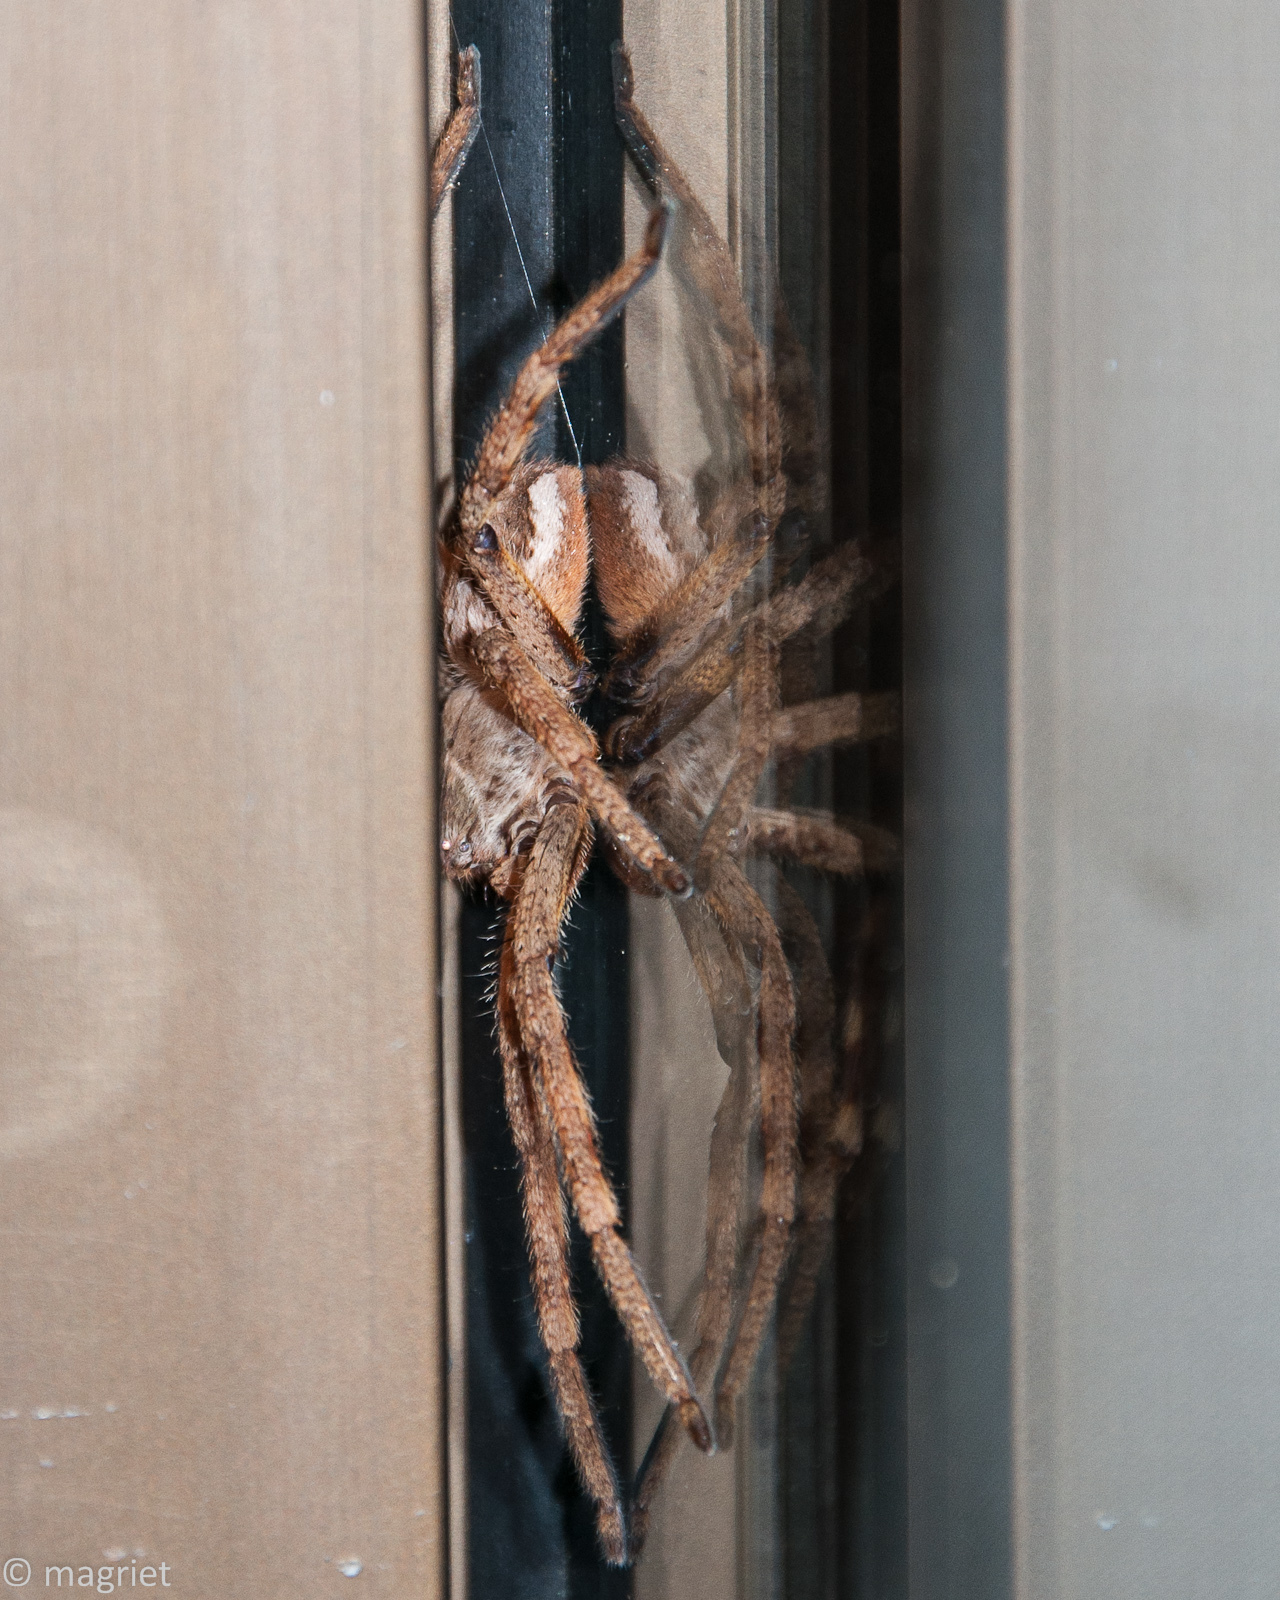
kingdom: Animalia
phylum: Arthropoda
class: Arachnida
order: Araneae
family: Sparassidae
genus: Palystes
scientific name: Palystes superciliosus
